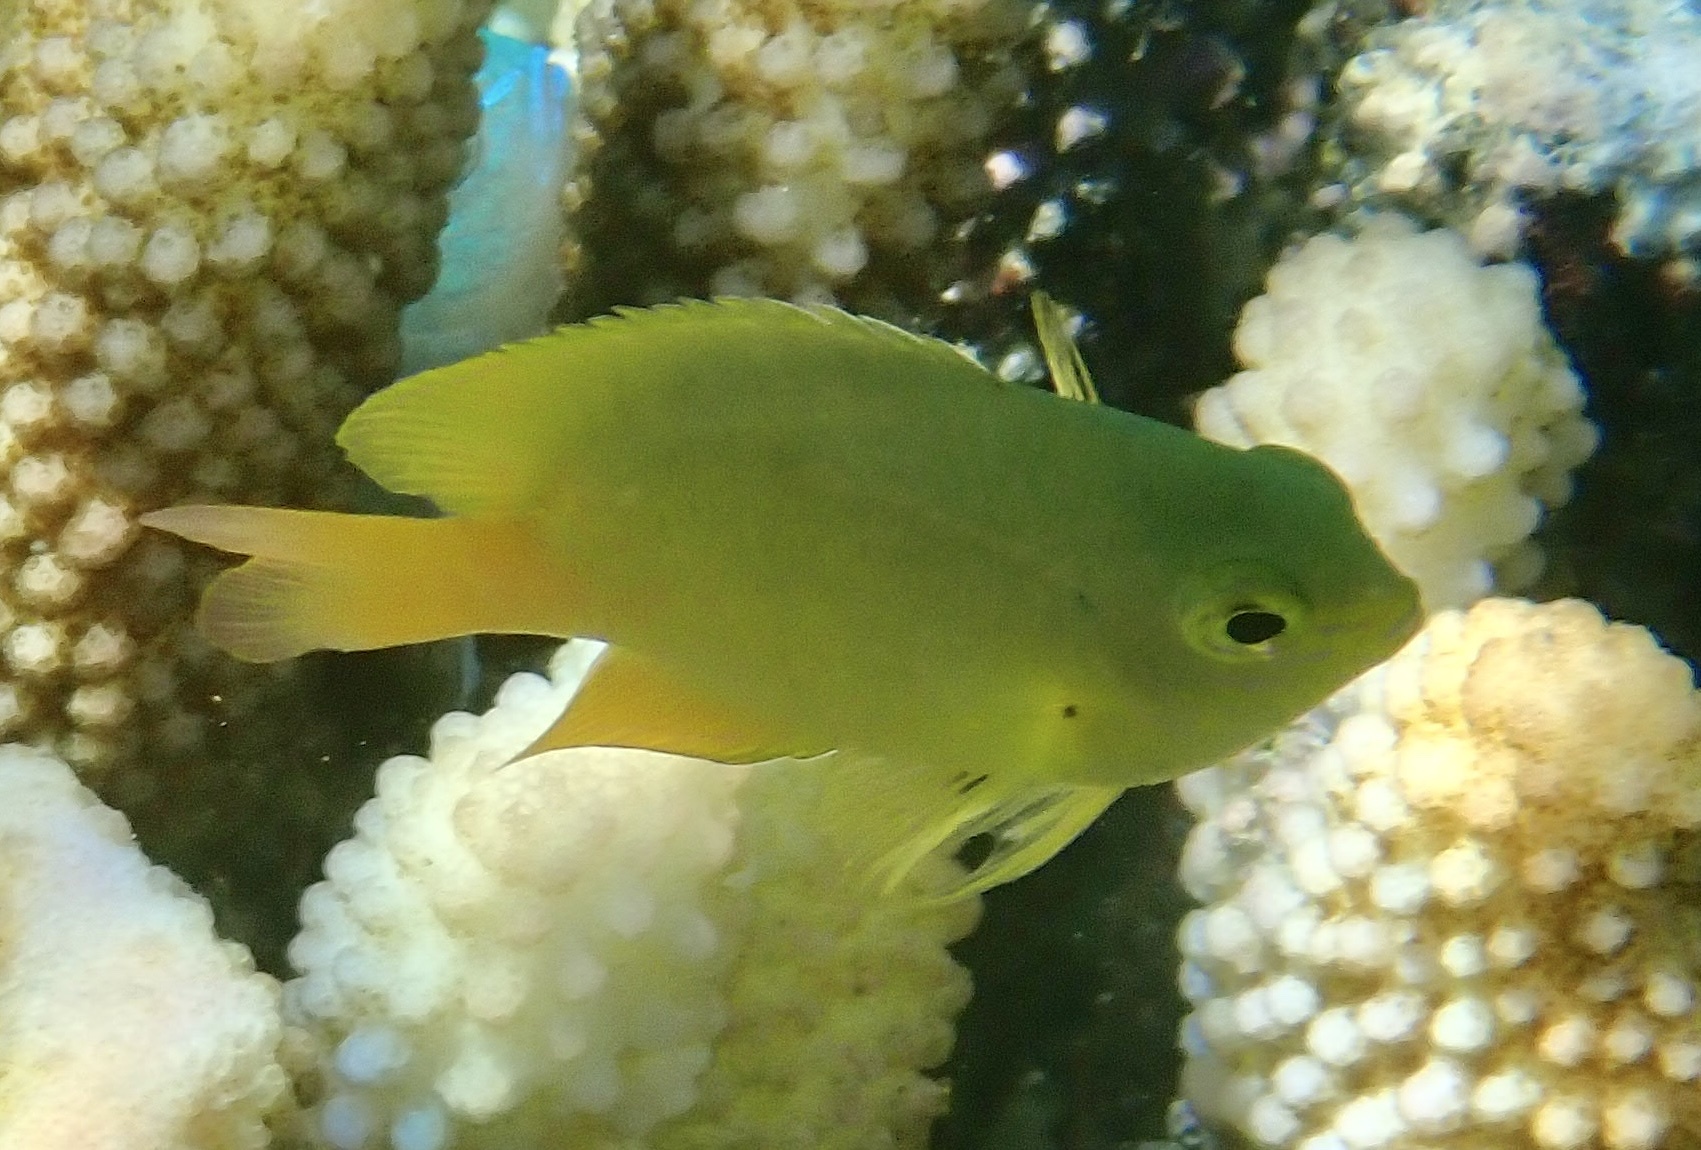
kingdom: Animalia
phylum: Chordata
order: Perciformes
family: Pomacentridae
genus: Pomacentrus
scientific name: Pomacentrus moluccensis
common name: Lemon damsel
